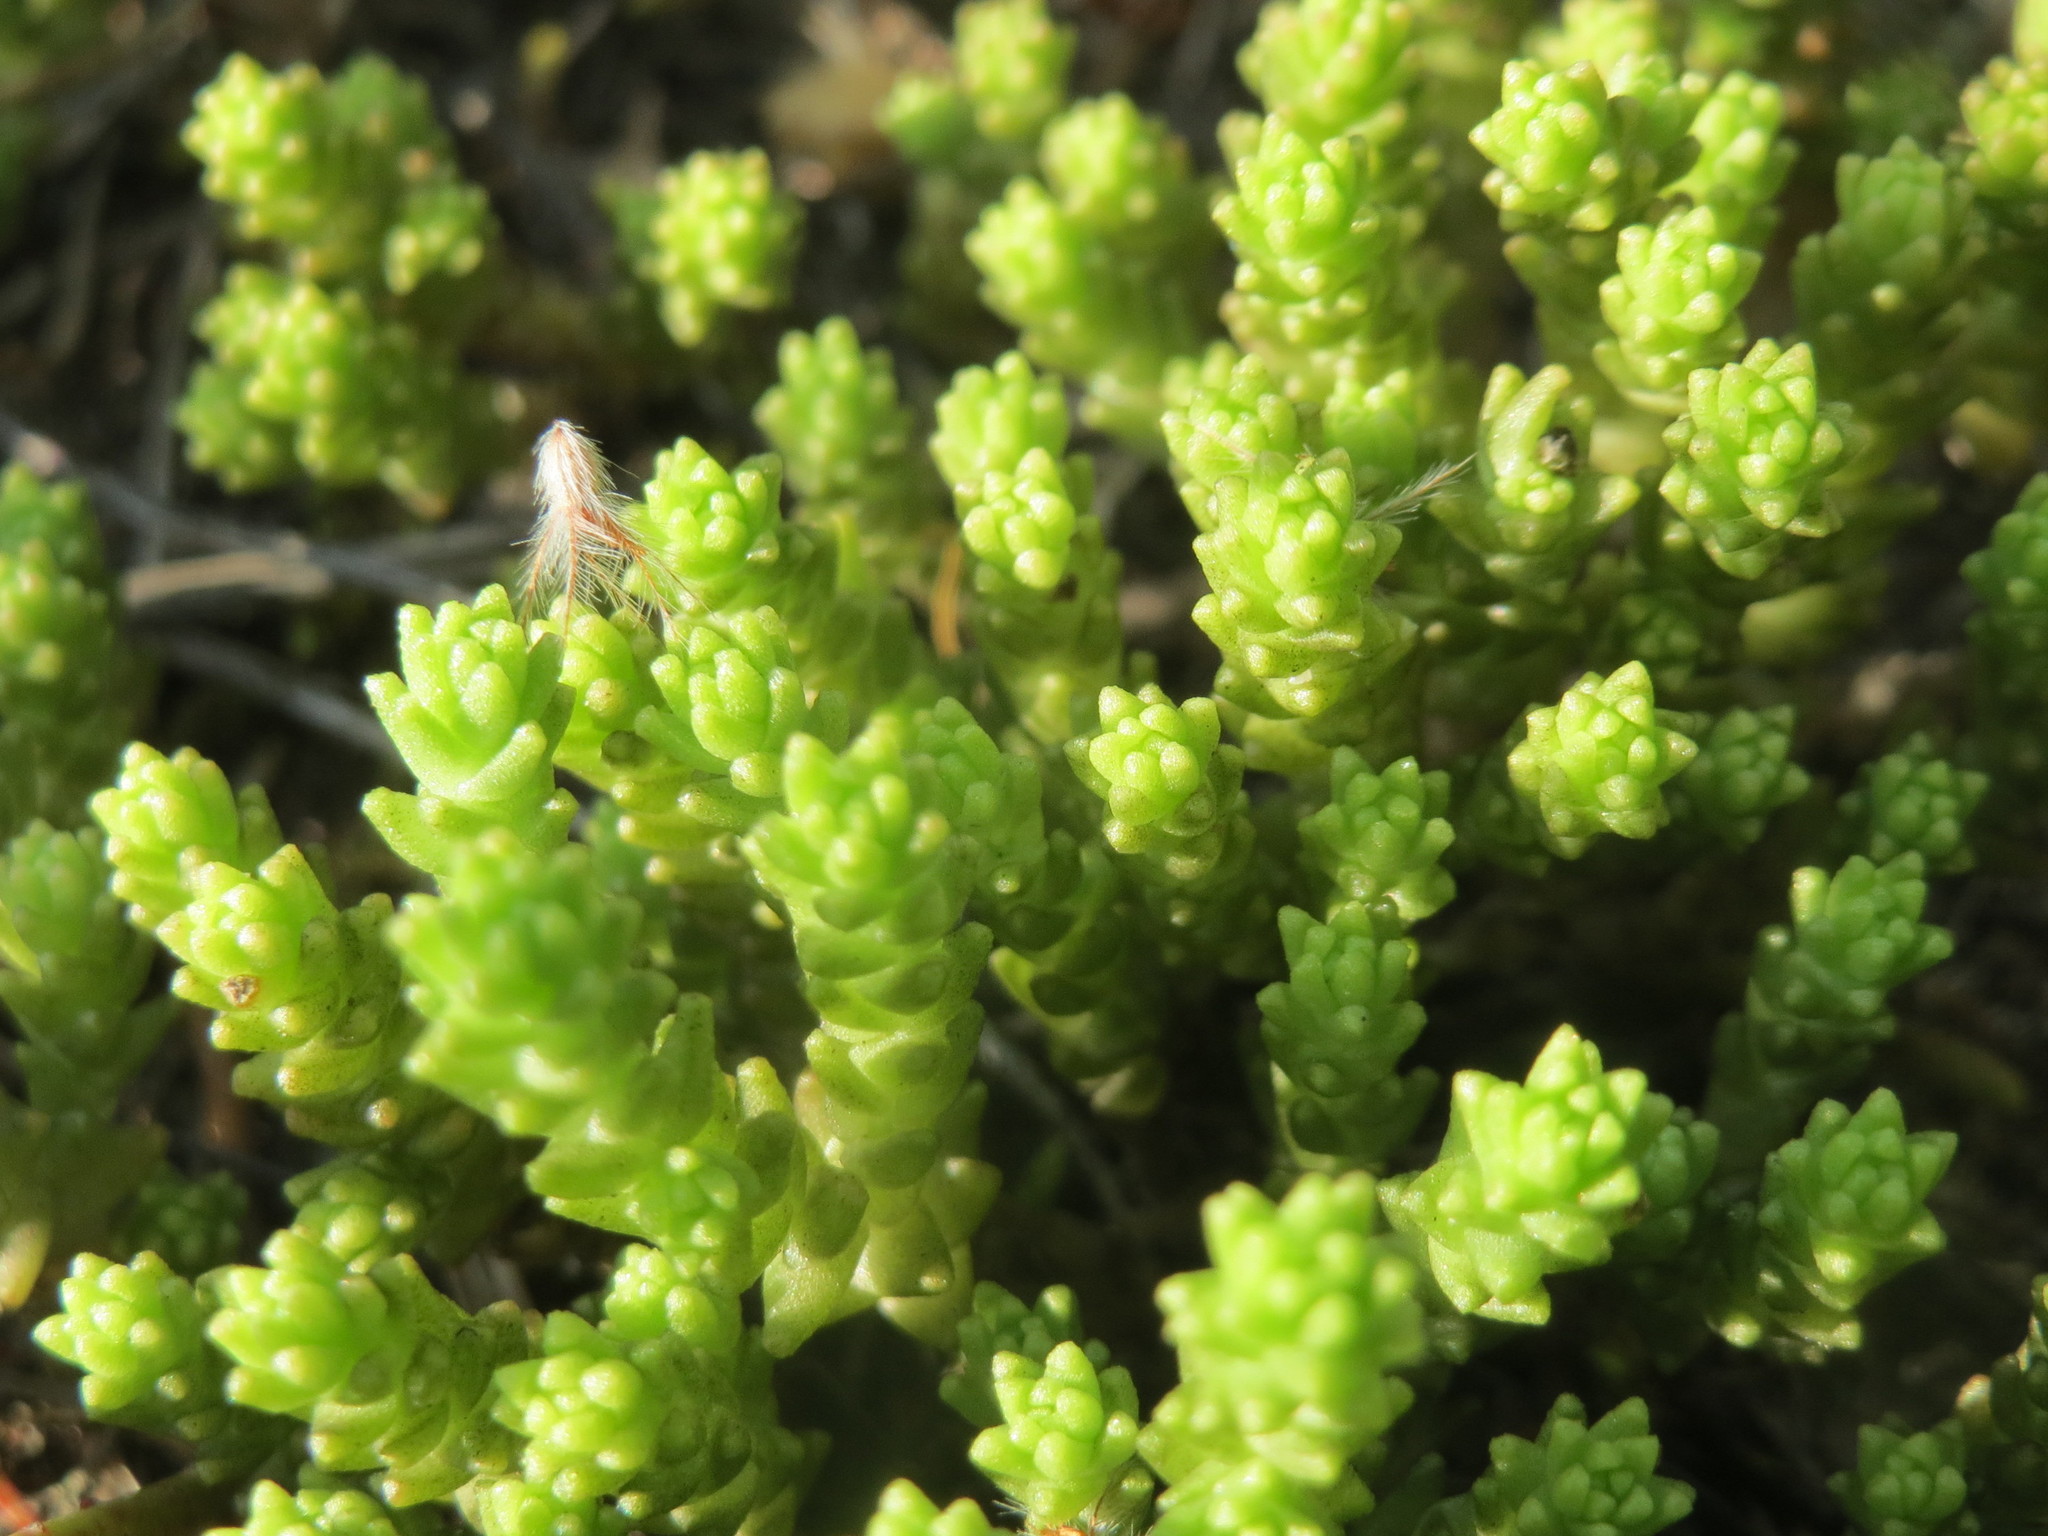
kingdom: Plantae
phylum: Tracheophyta
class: Magnoliopsida
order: Saxifragales
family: Crassulaceae
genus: Sedum
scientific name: Sedum acre
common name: Biting stonecrop
